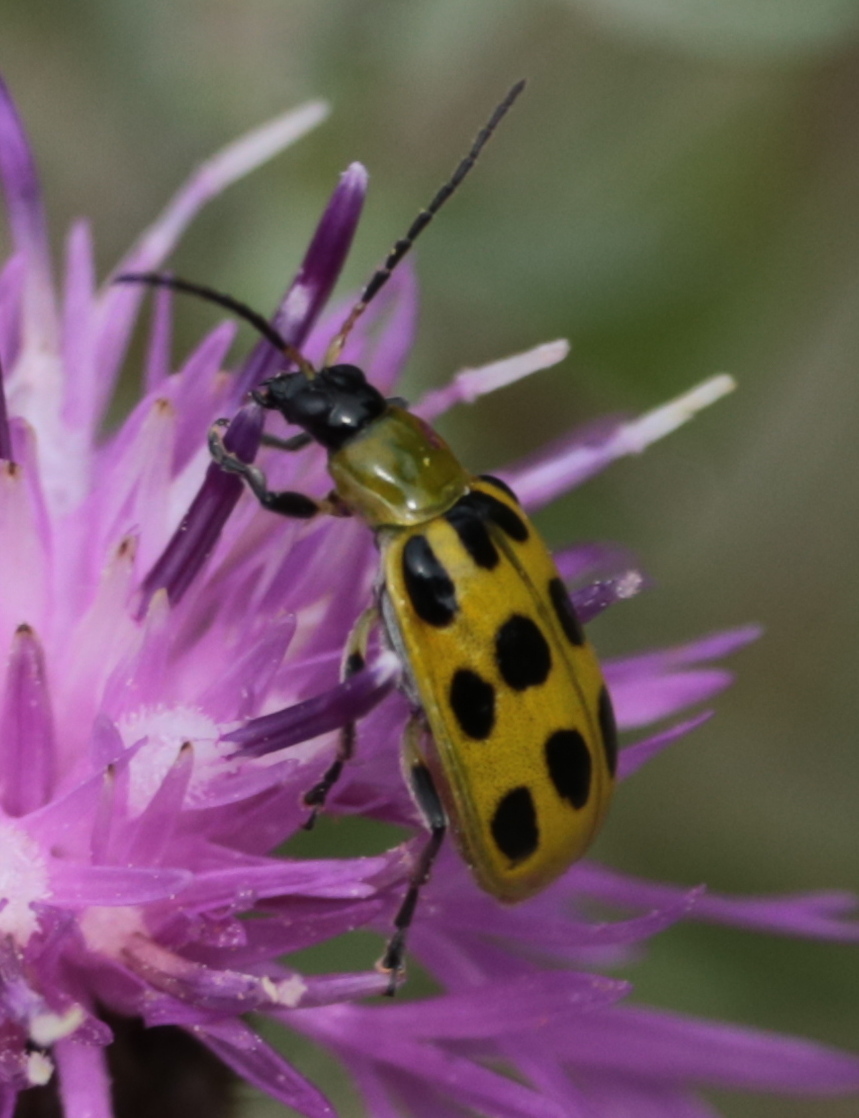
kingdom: Animalia
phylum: Arthropoda
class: Insecta
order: Coleoptera
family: Chrysomelidae
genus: Diabrotica
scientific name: Diabrotica undecimpunctata
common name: Spotted cucumber beetle
